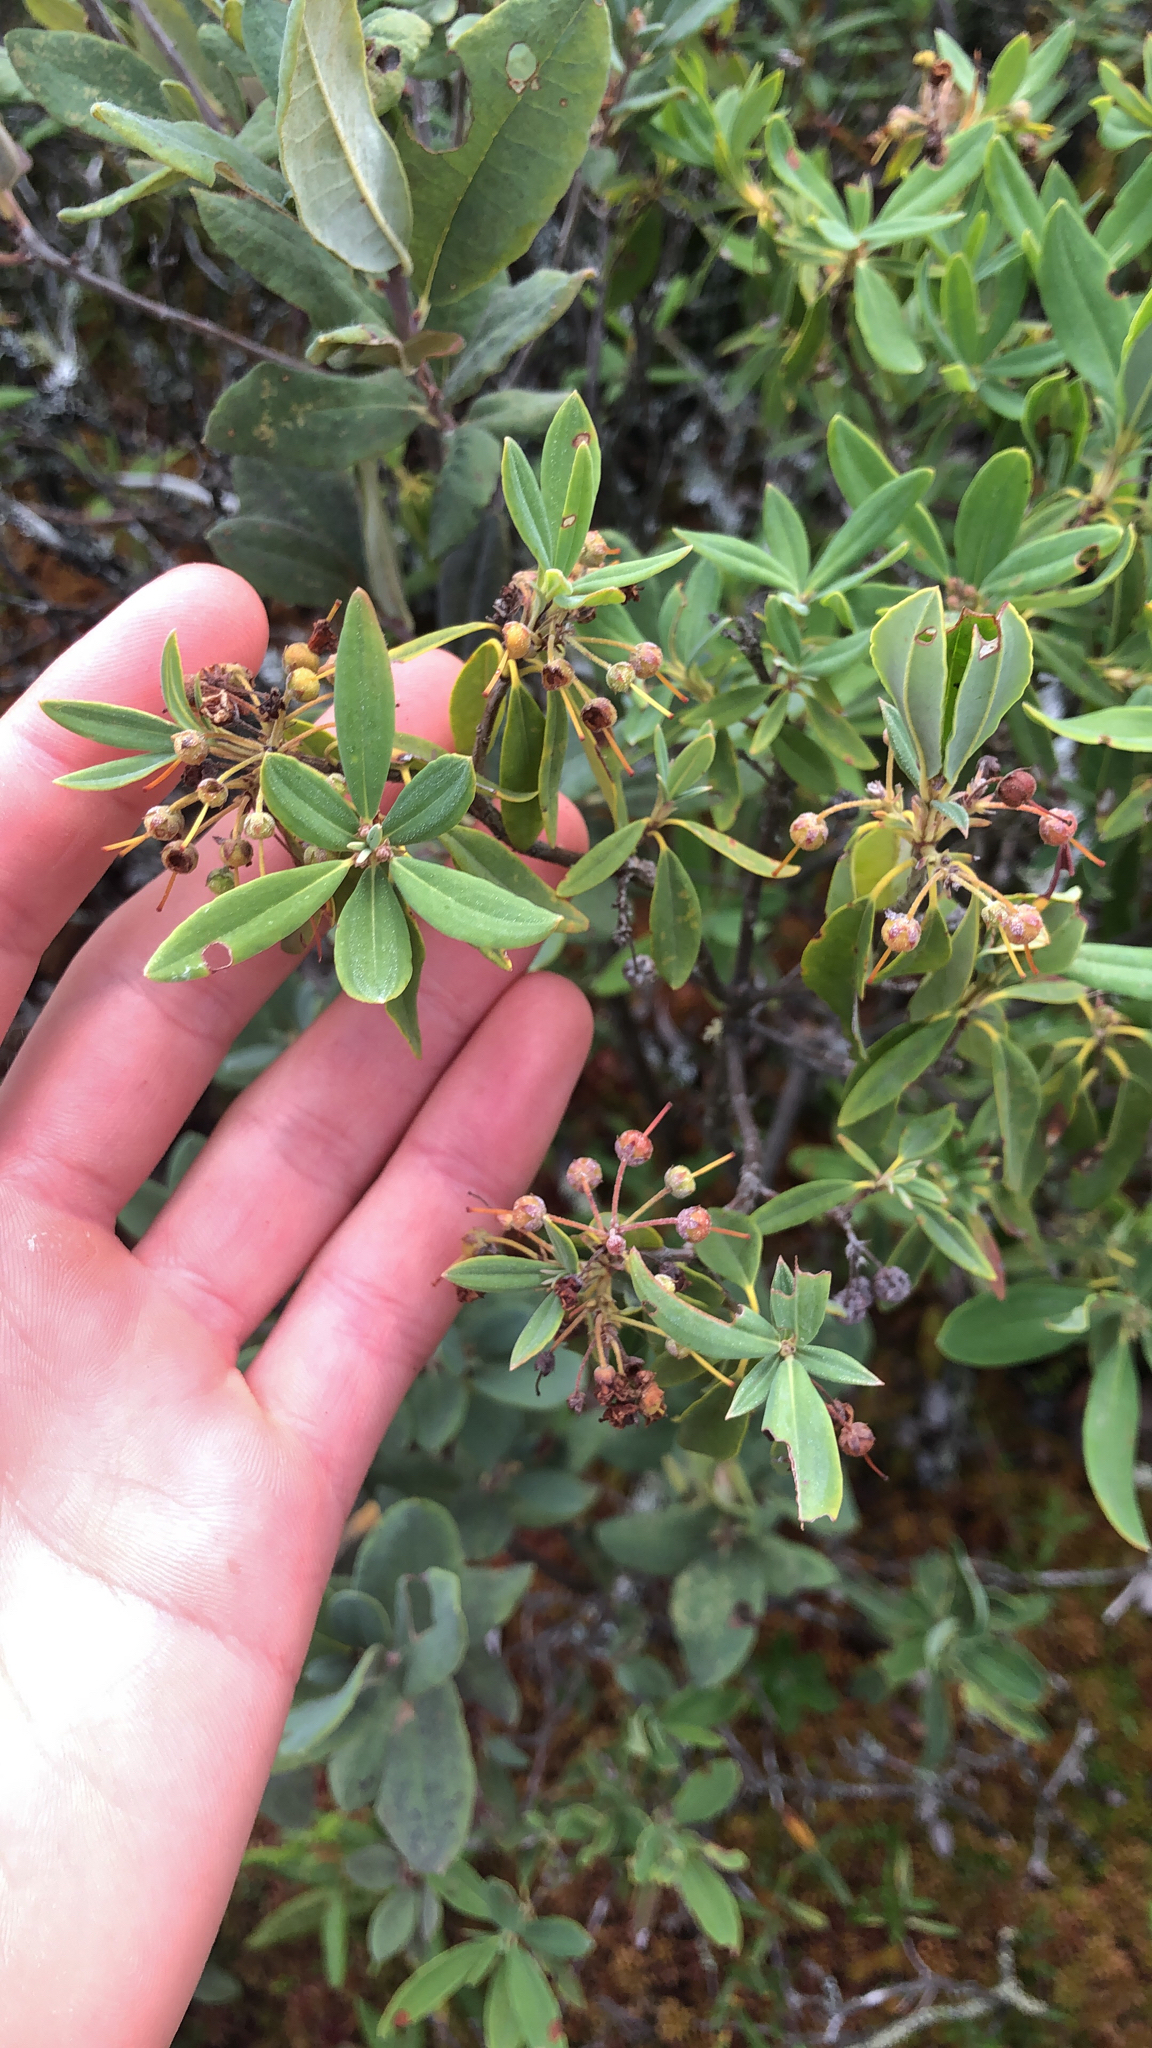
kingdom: Plantae
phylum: Tracheophyta
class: Magnoliopsida
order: Ericales
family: Ericaceae
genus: Kalmia
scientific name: Kalmia angustifolia
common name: Sheep-laurel
